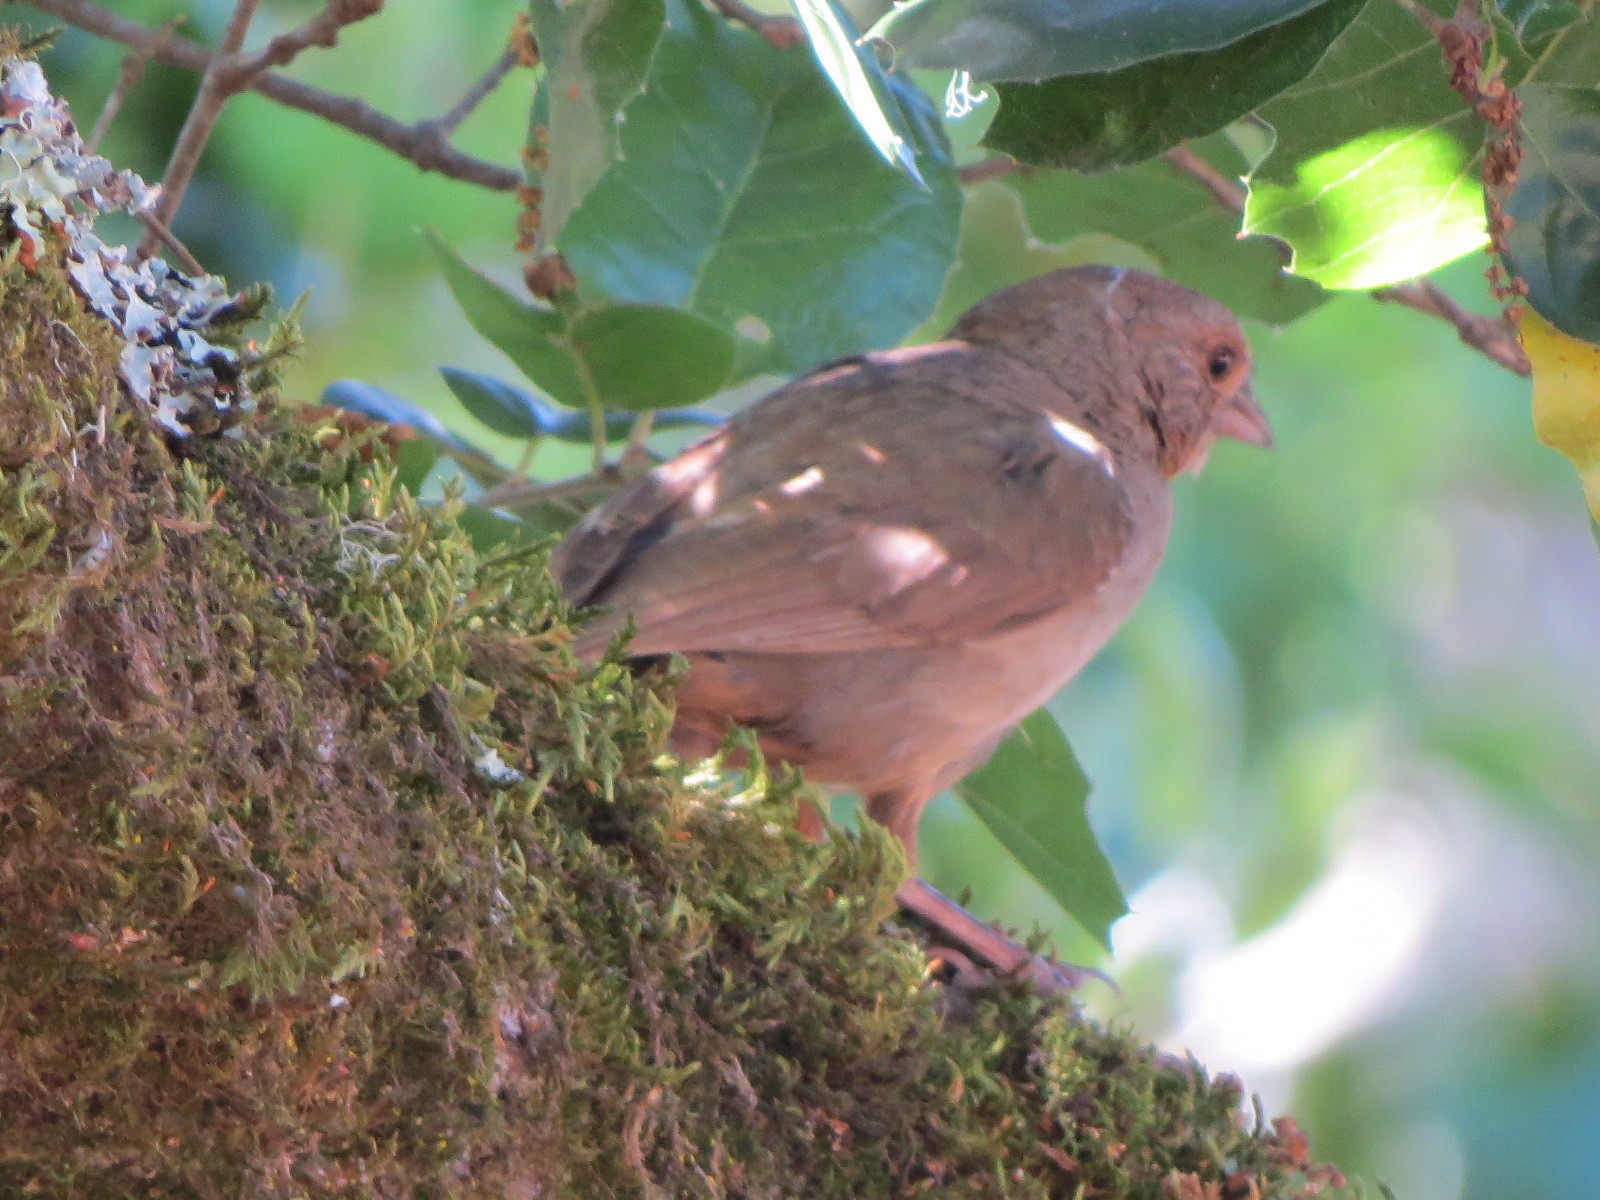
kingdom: Animalia
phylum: Chordata
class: Aves
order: Passeriformes
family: Passerellidae
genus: Melozone
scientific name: Melozone crissalis
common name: California towhee
